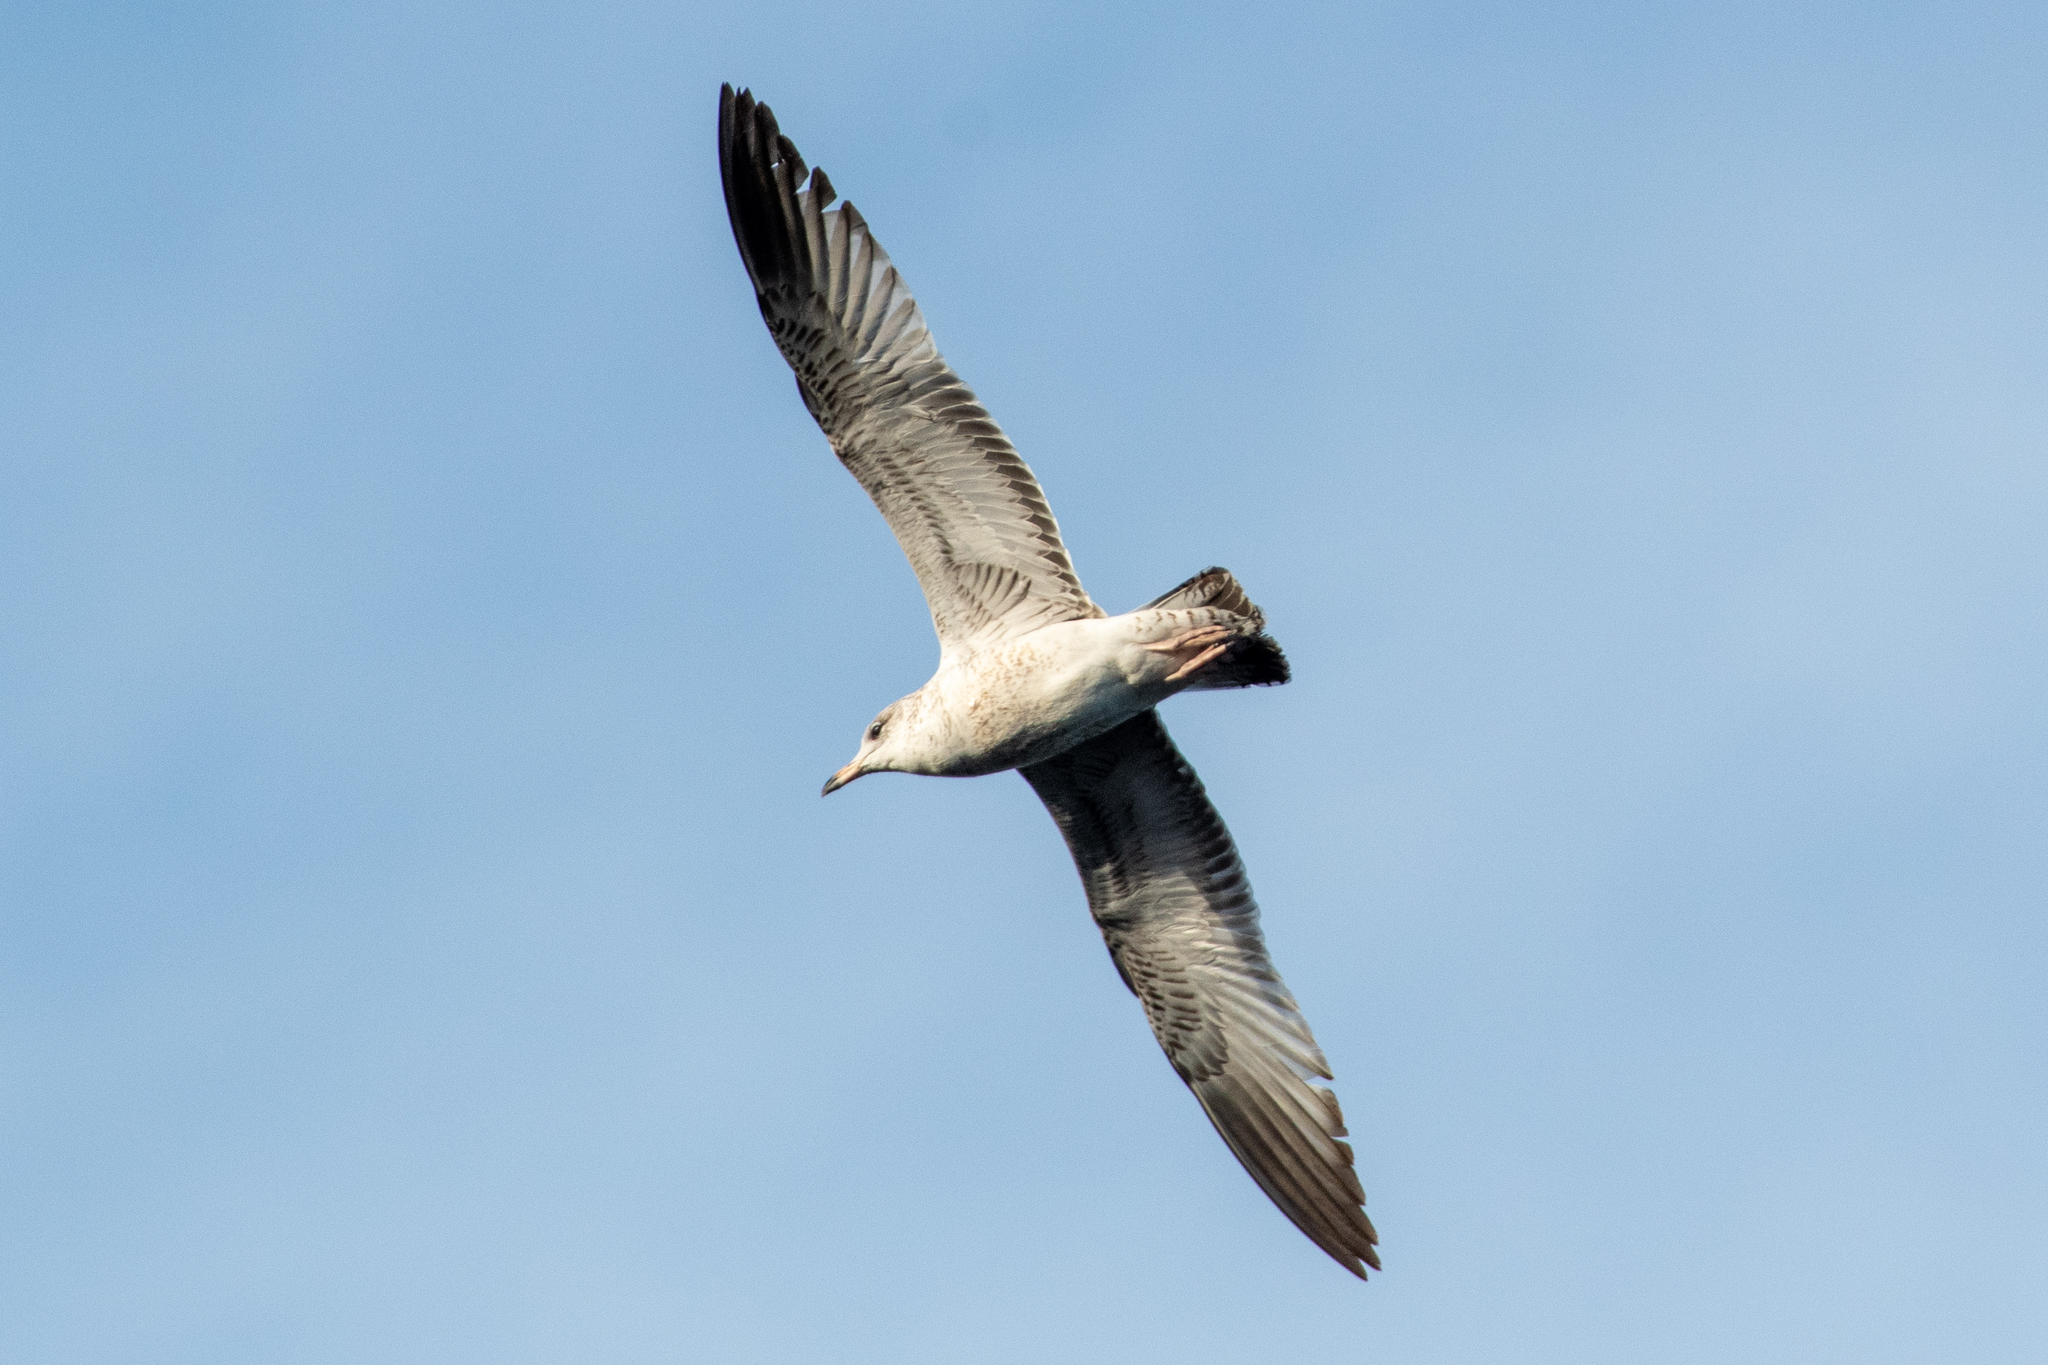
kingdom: Animalia
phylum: Chordata
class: Aves
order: Charadriiformes
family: Laridae
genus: Larus
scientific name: Larus delawarensis
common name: Ring-billed gull
